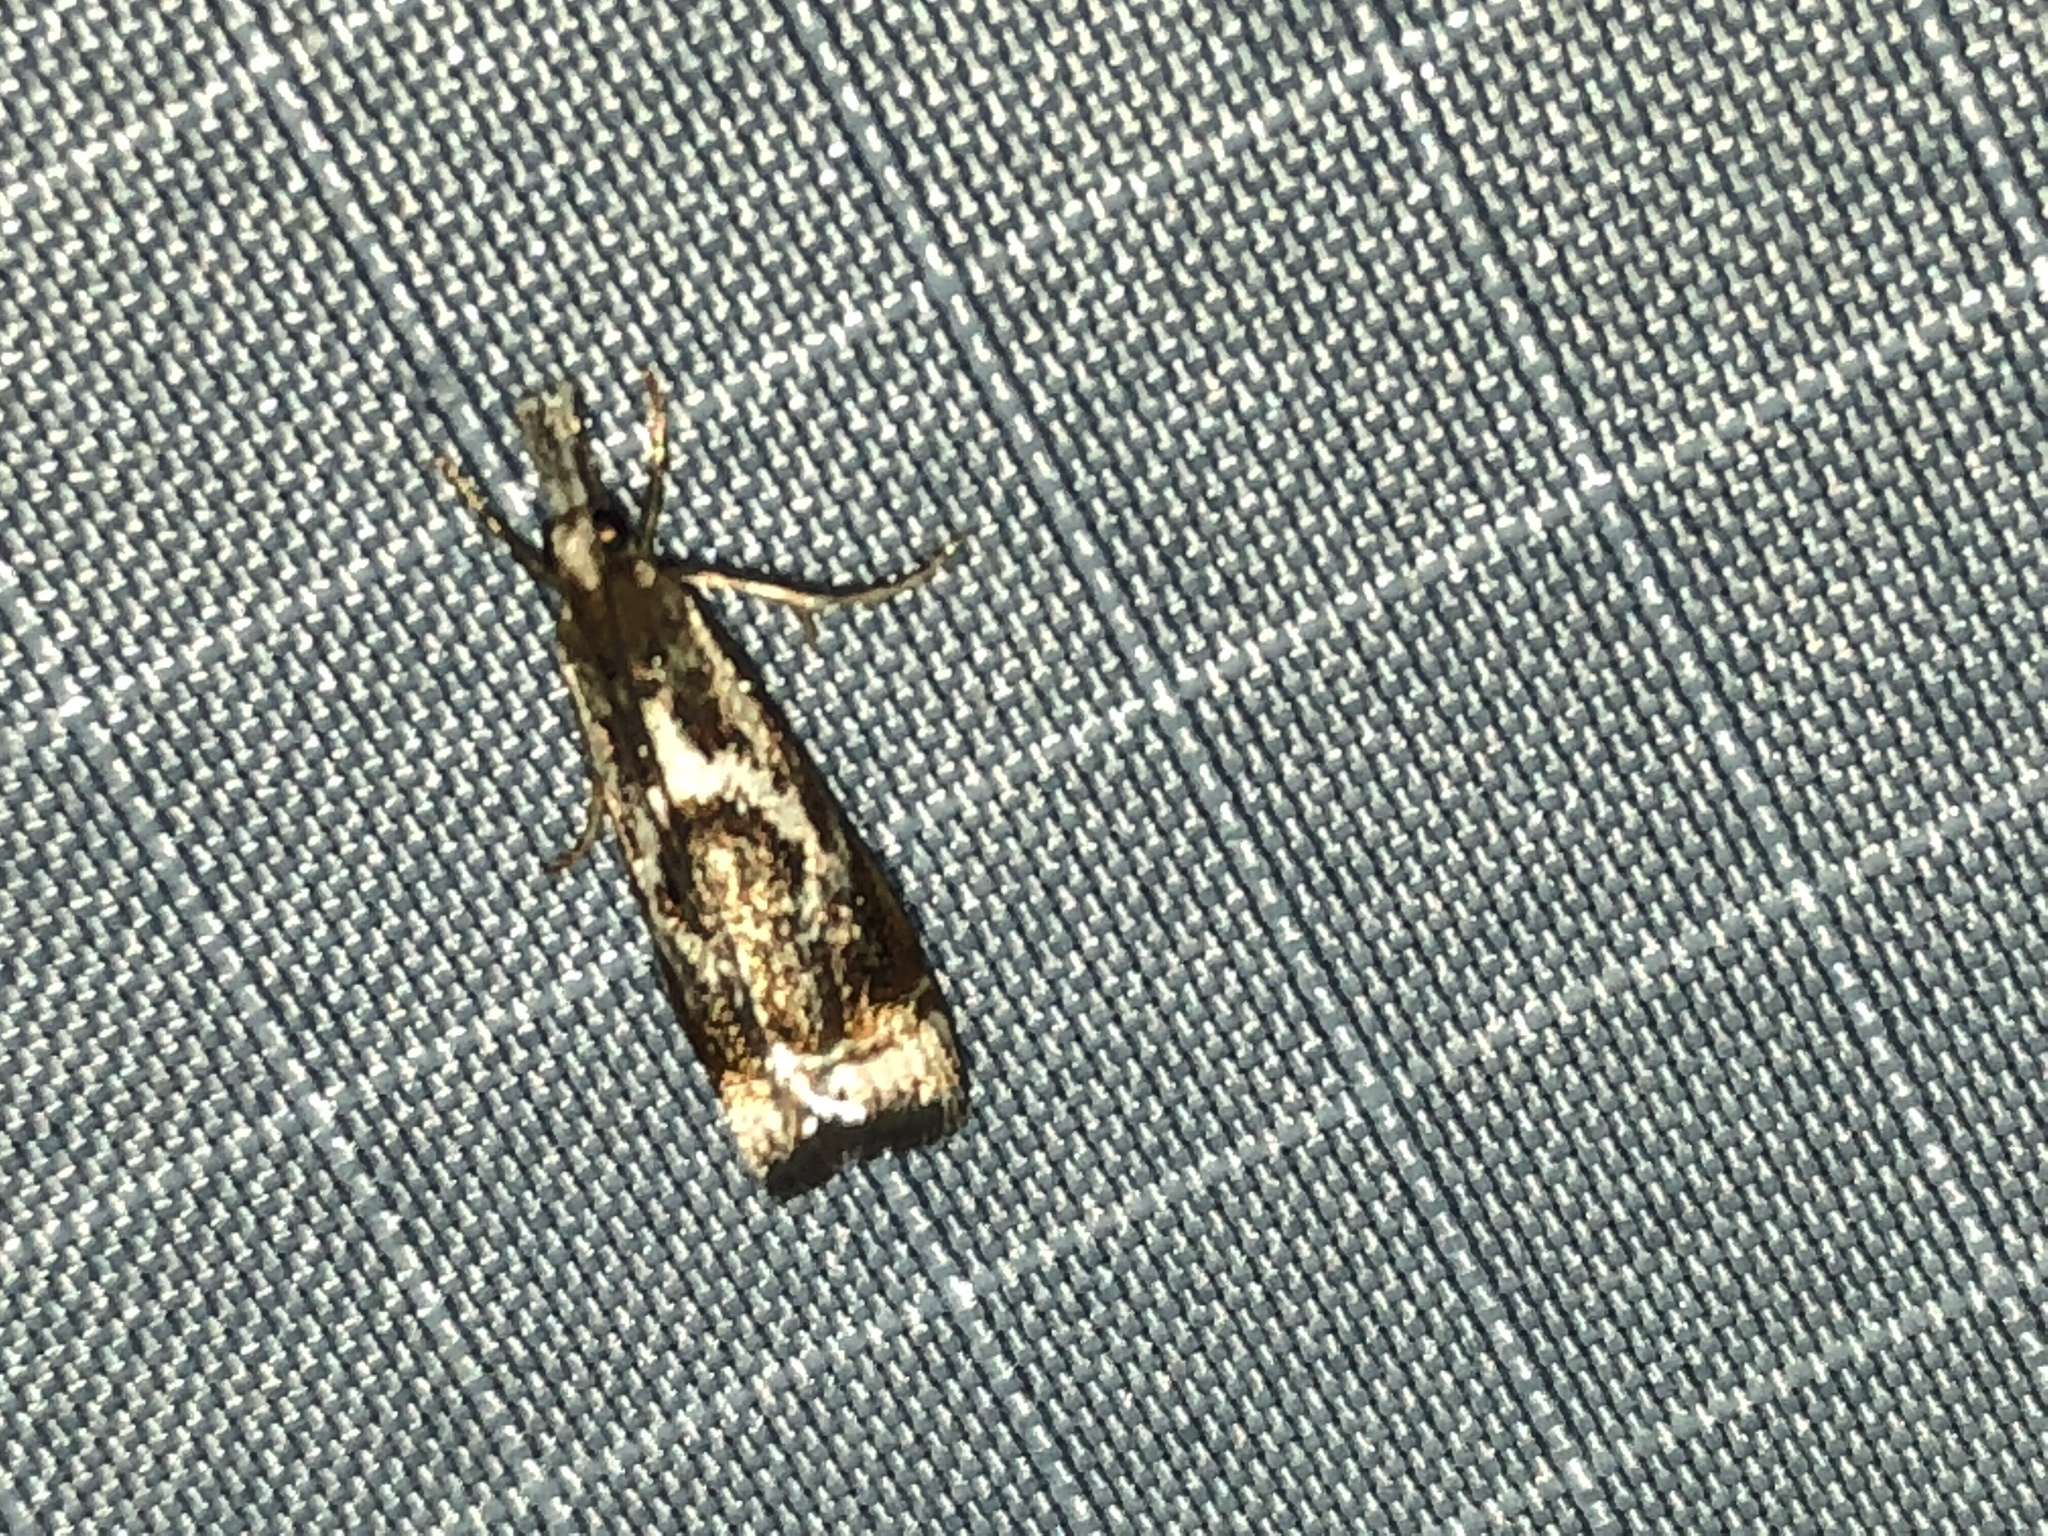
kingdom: Animalia
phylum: Arthropoda
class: Insecta
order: Lepidoptera
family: Crambidae
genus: Microcrambus
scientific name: Microcrambus elegans
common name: Elegant grass-veneer
